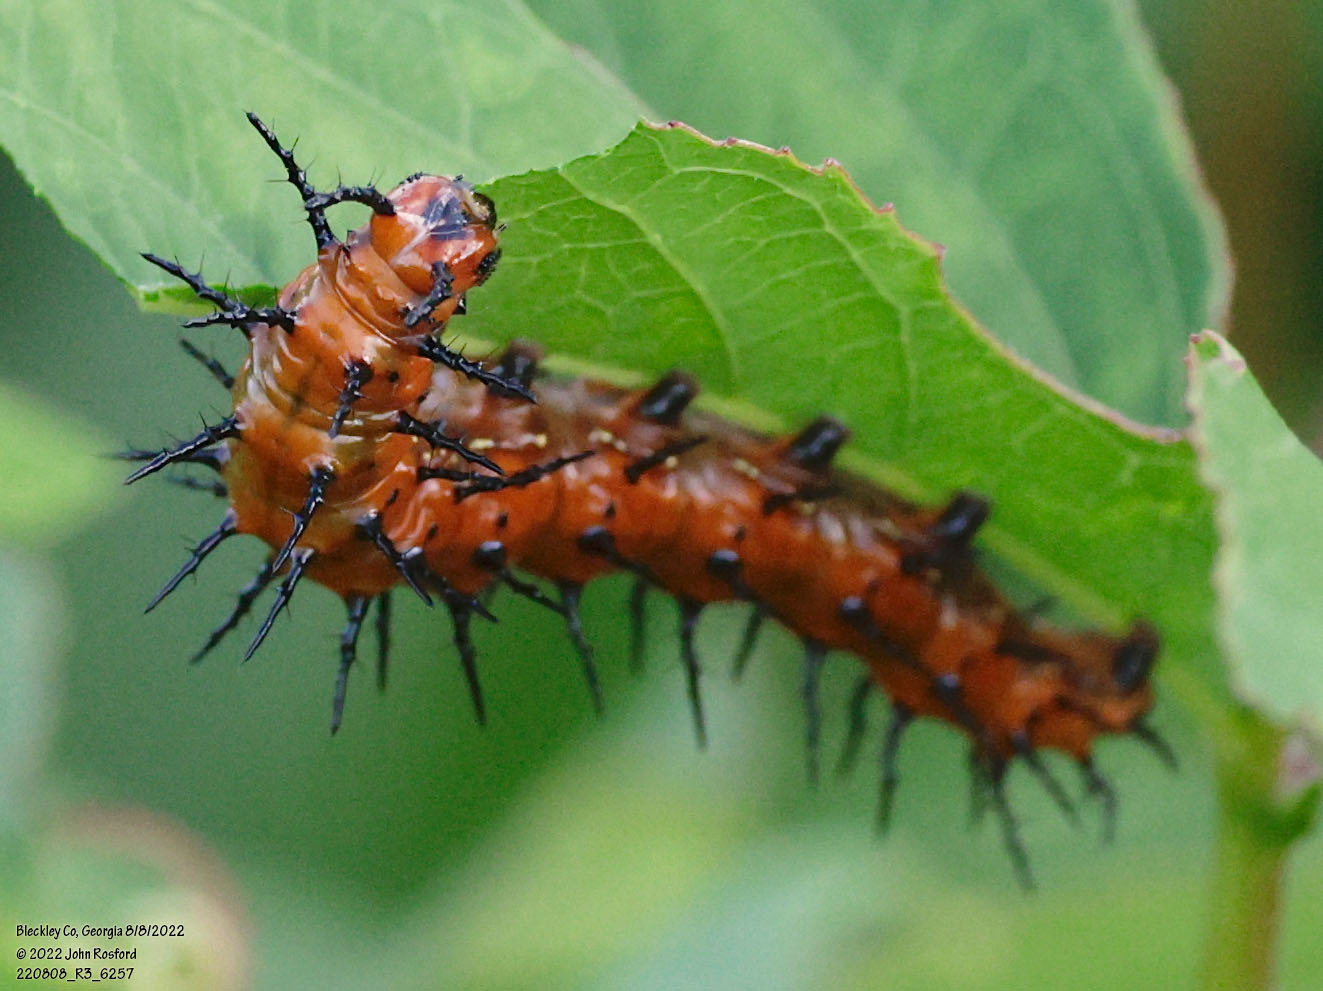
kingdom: Animalia
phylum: Arthropoda
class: Insecta
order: Lepidoptera
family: Nymphalidae
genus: Dione
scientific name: Dione vanillae
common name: Gulf fritillary
